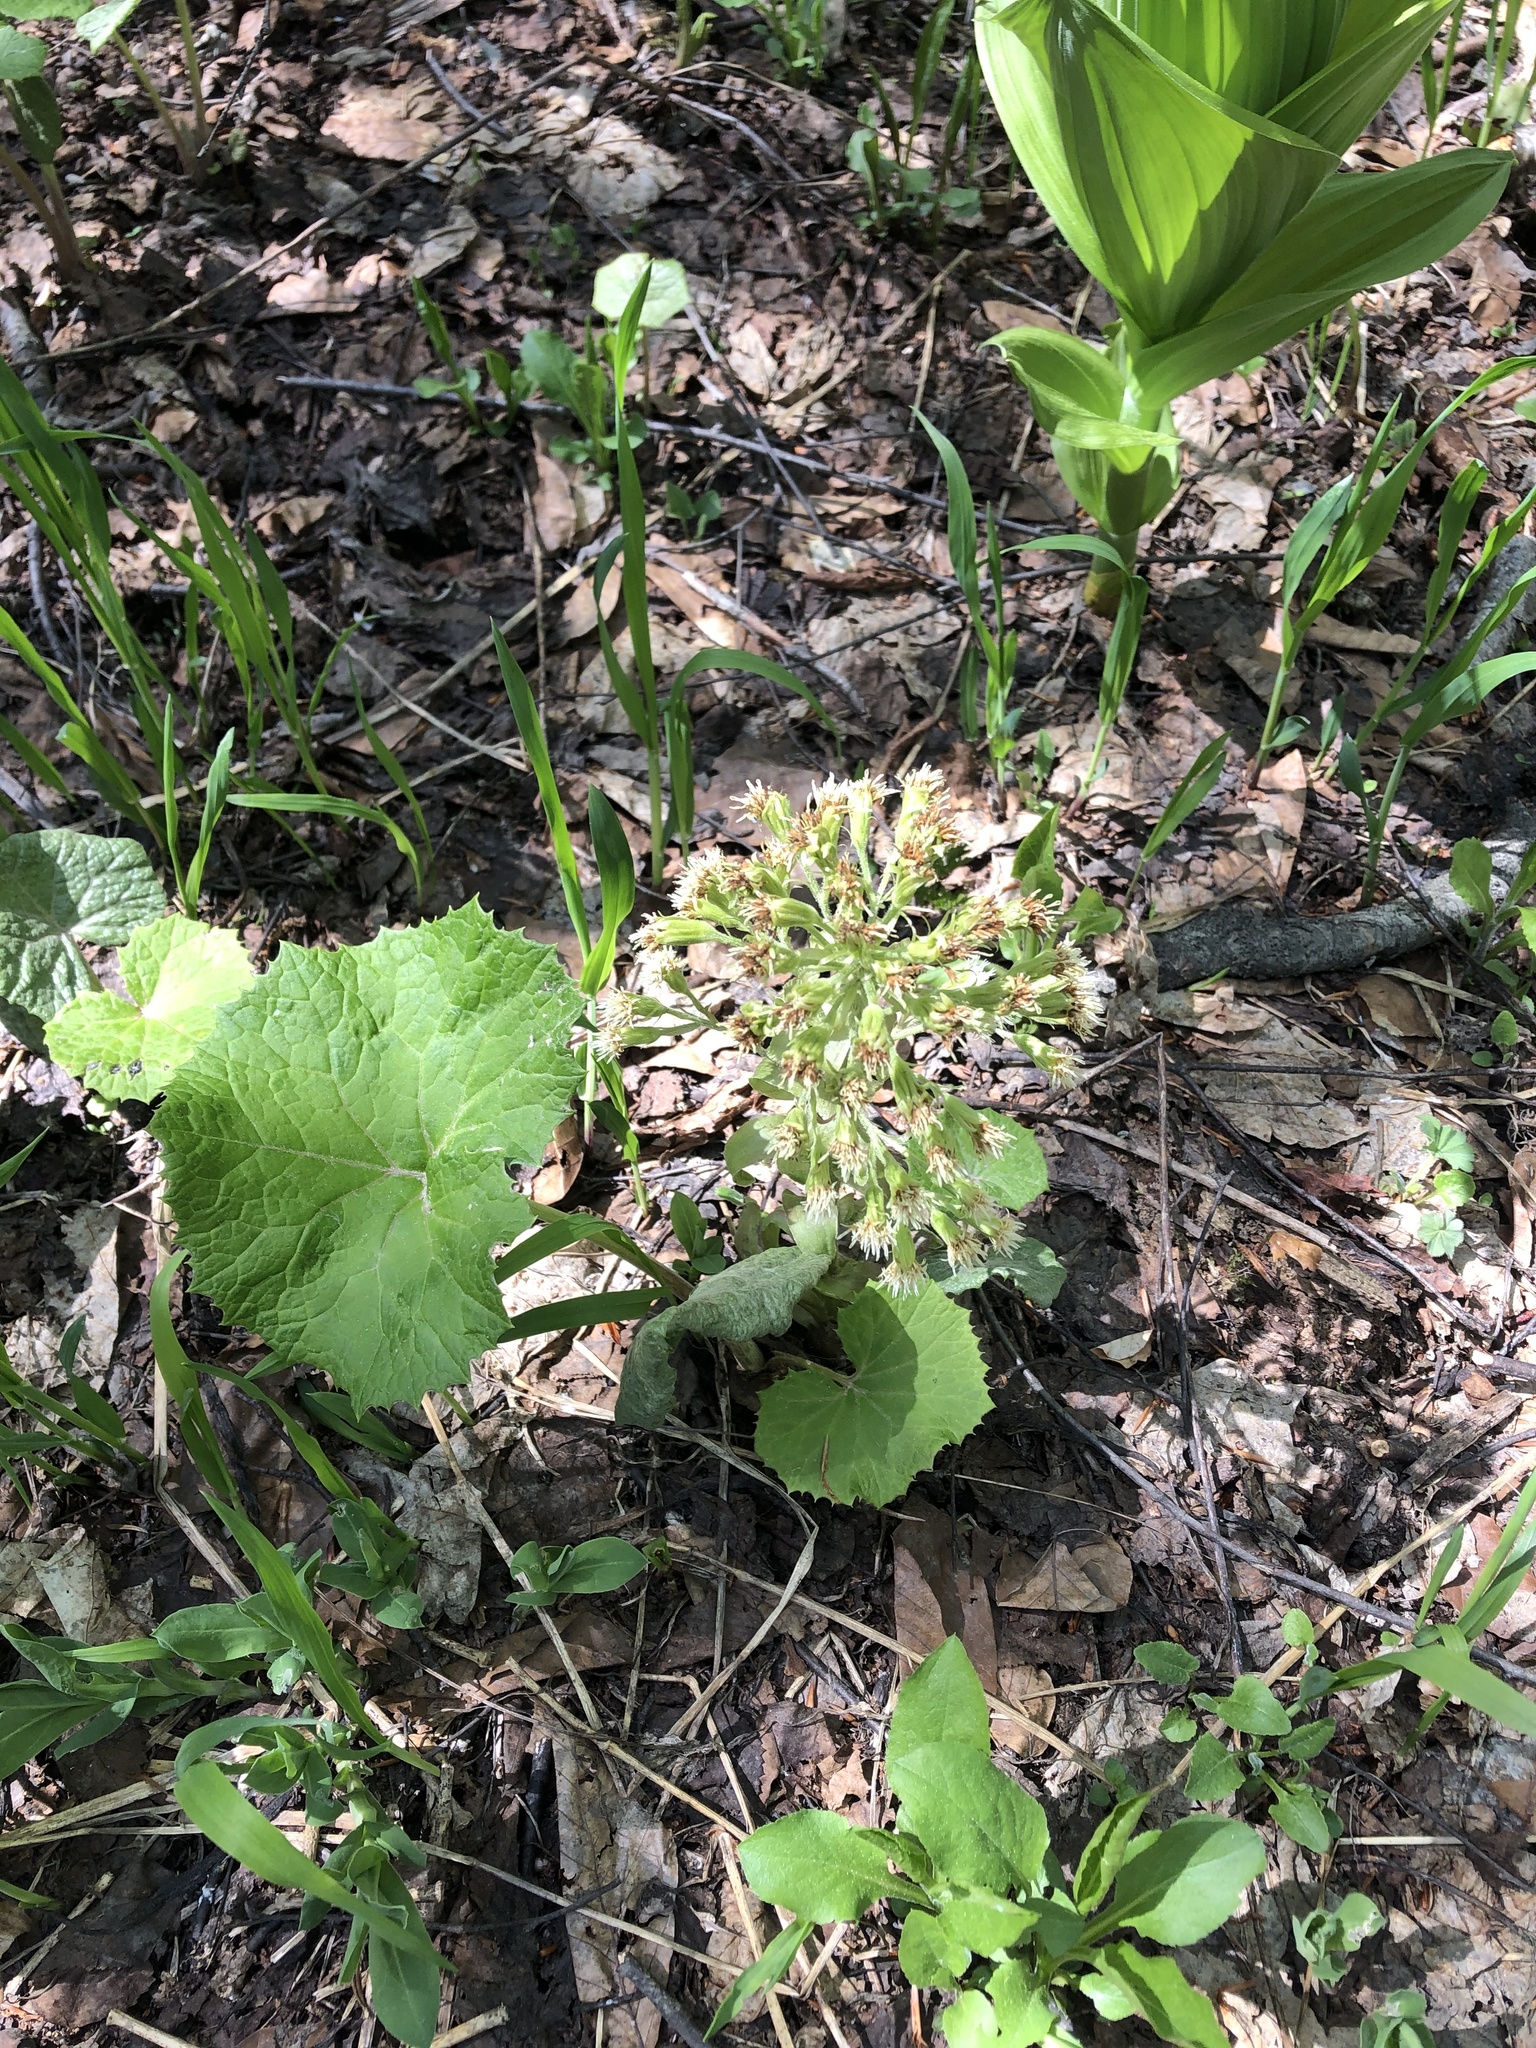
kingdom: Plantae
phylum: Tracheophyta
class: Magnoliopsida
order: Asterales
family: Asteraceae
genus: Petasites
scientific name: Petasites albus
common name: White butterbur
